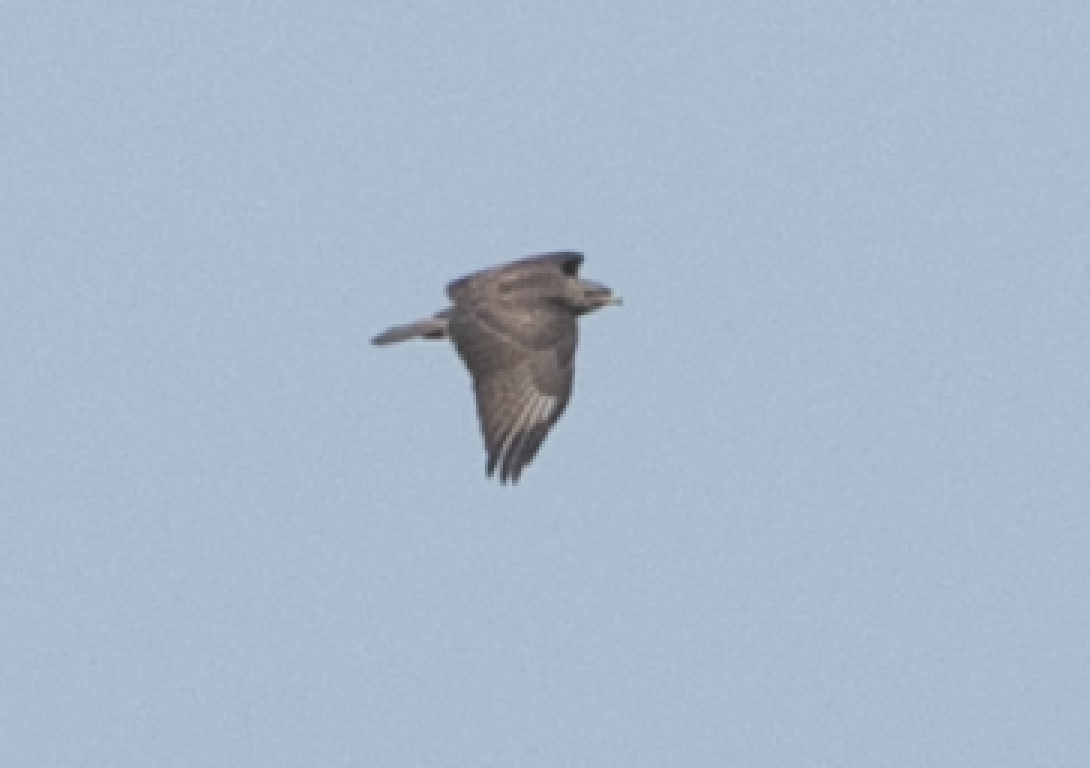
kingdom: Animalia
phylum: Chordata
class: Aves
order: Accipitriformes
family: Accipitridae
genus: Buteo
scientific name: Buteo buteo
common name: Common buzzard
